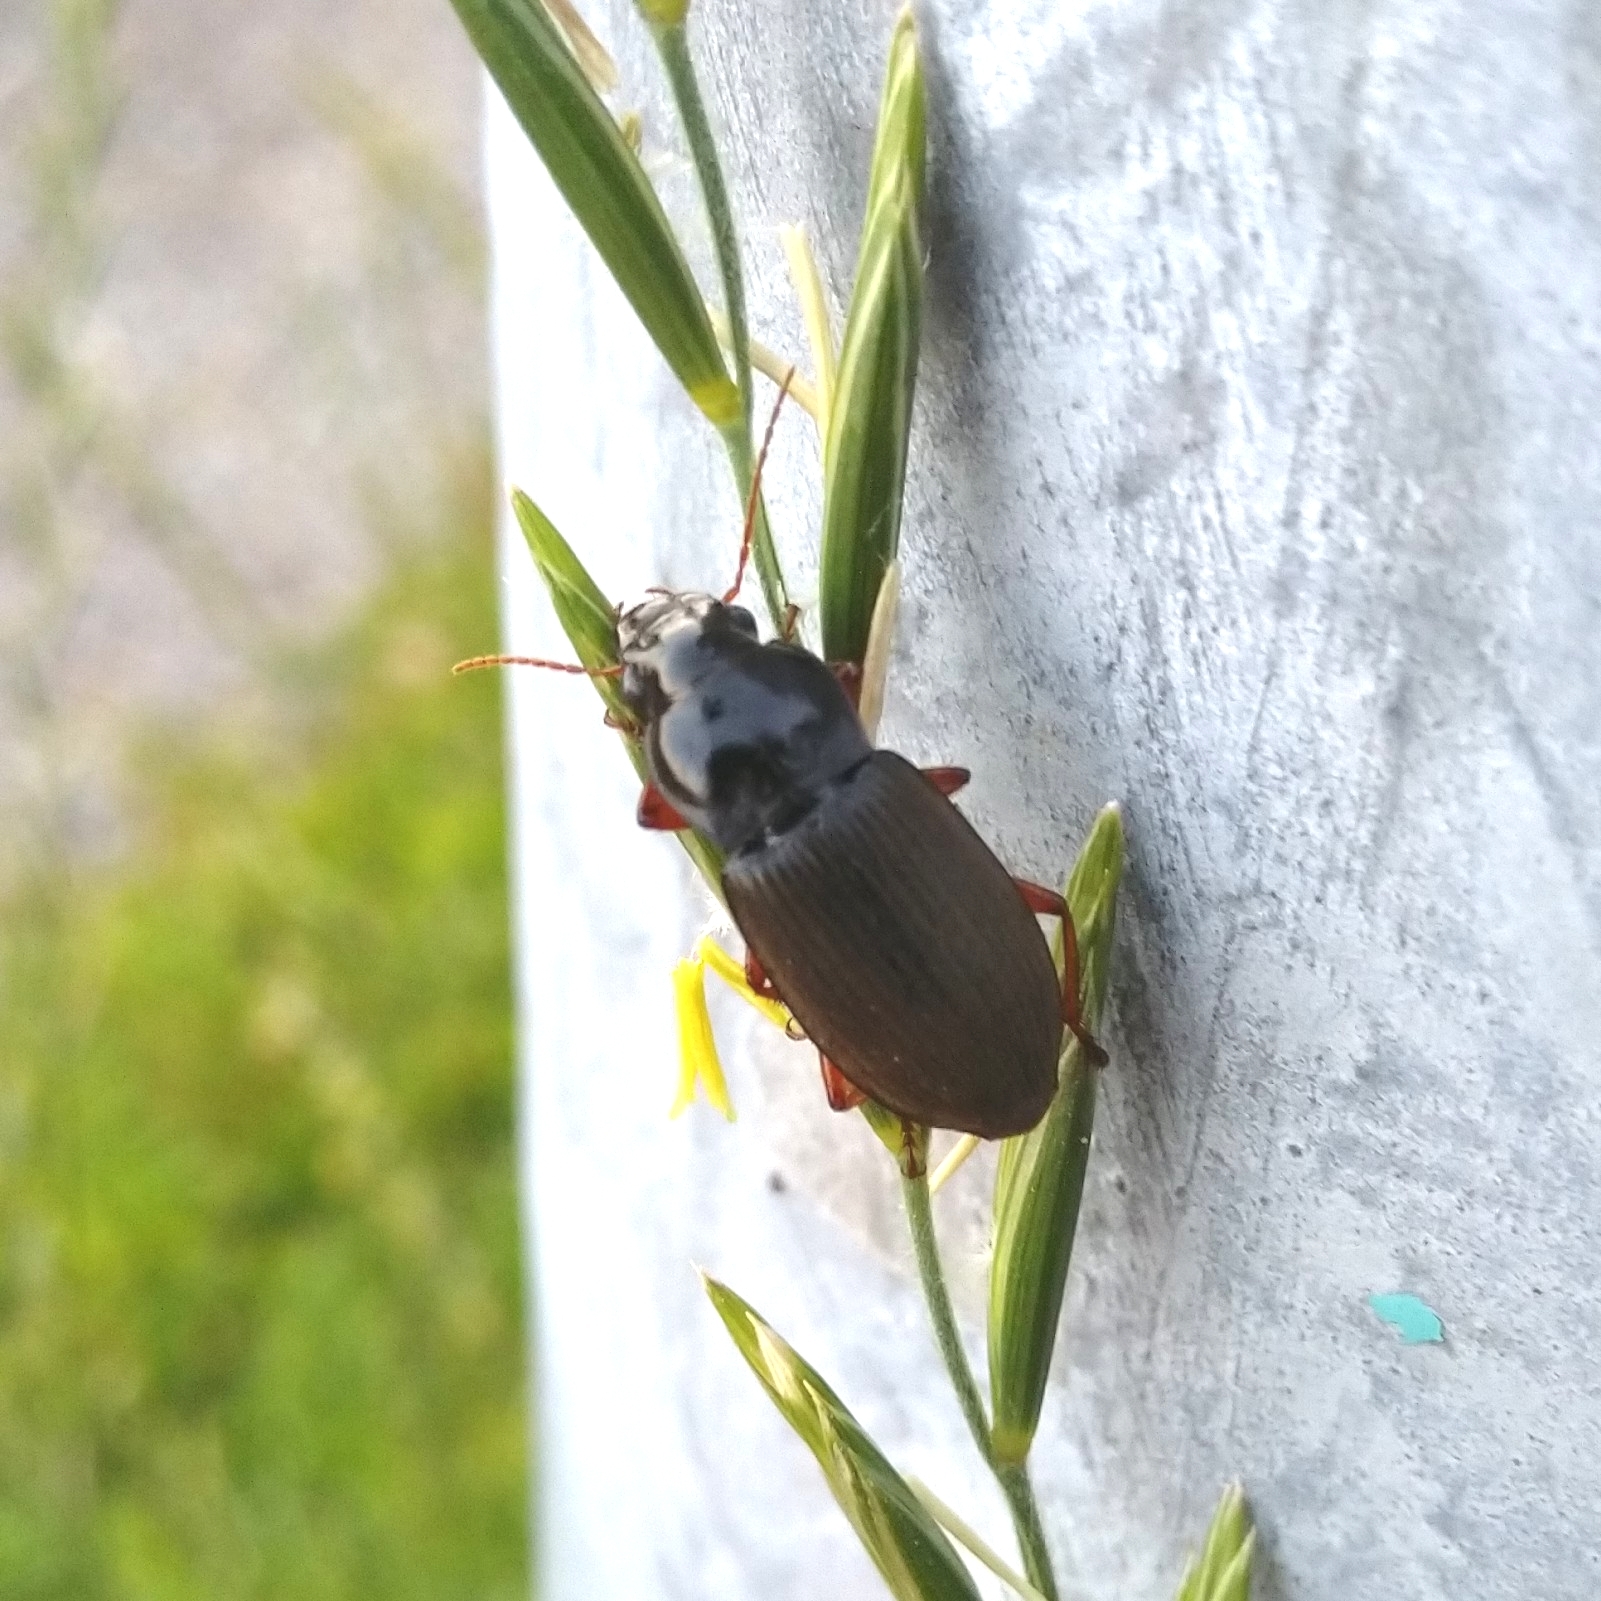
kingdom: Animalia
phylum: Arthropoda
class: Insecta
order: Coleoptera
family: Carabidae
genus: Harpalus
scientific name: Harpalus rufipes
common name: Strawberry harp ground beetle
